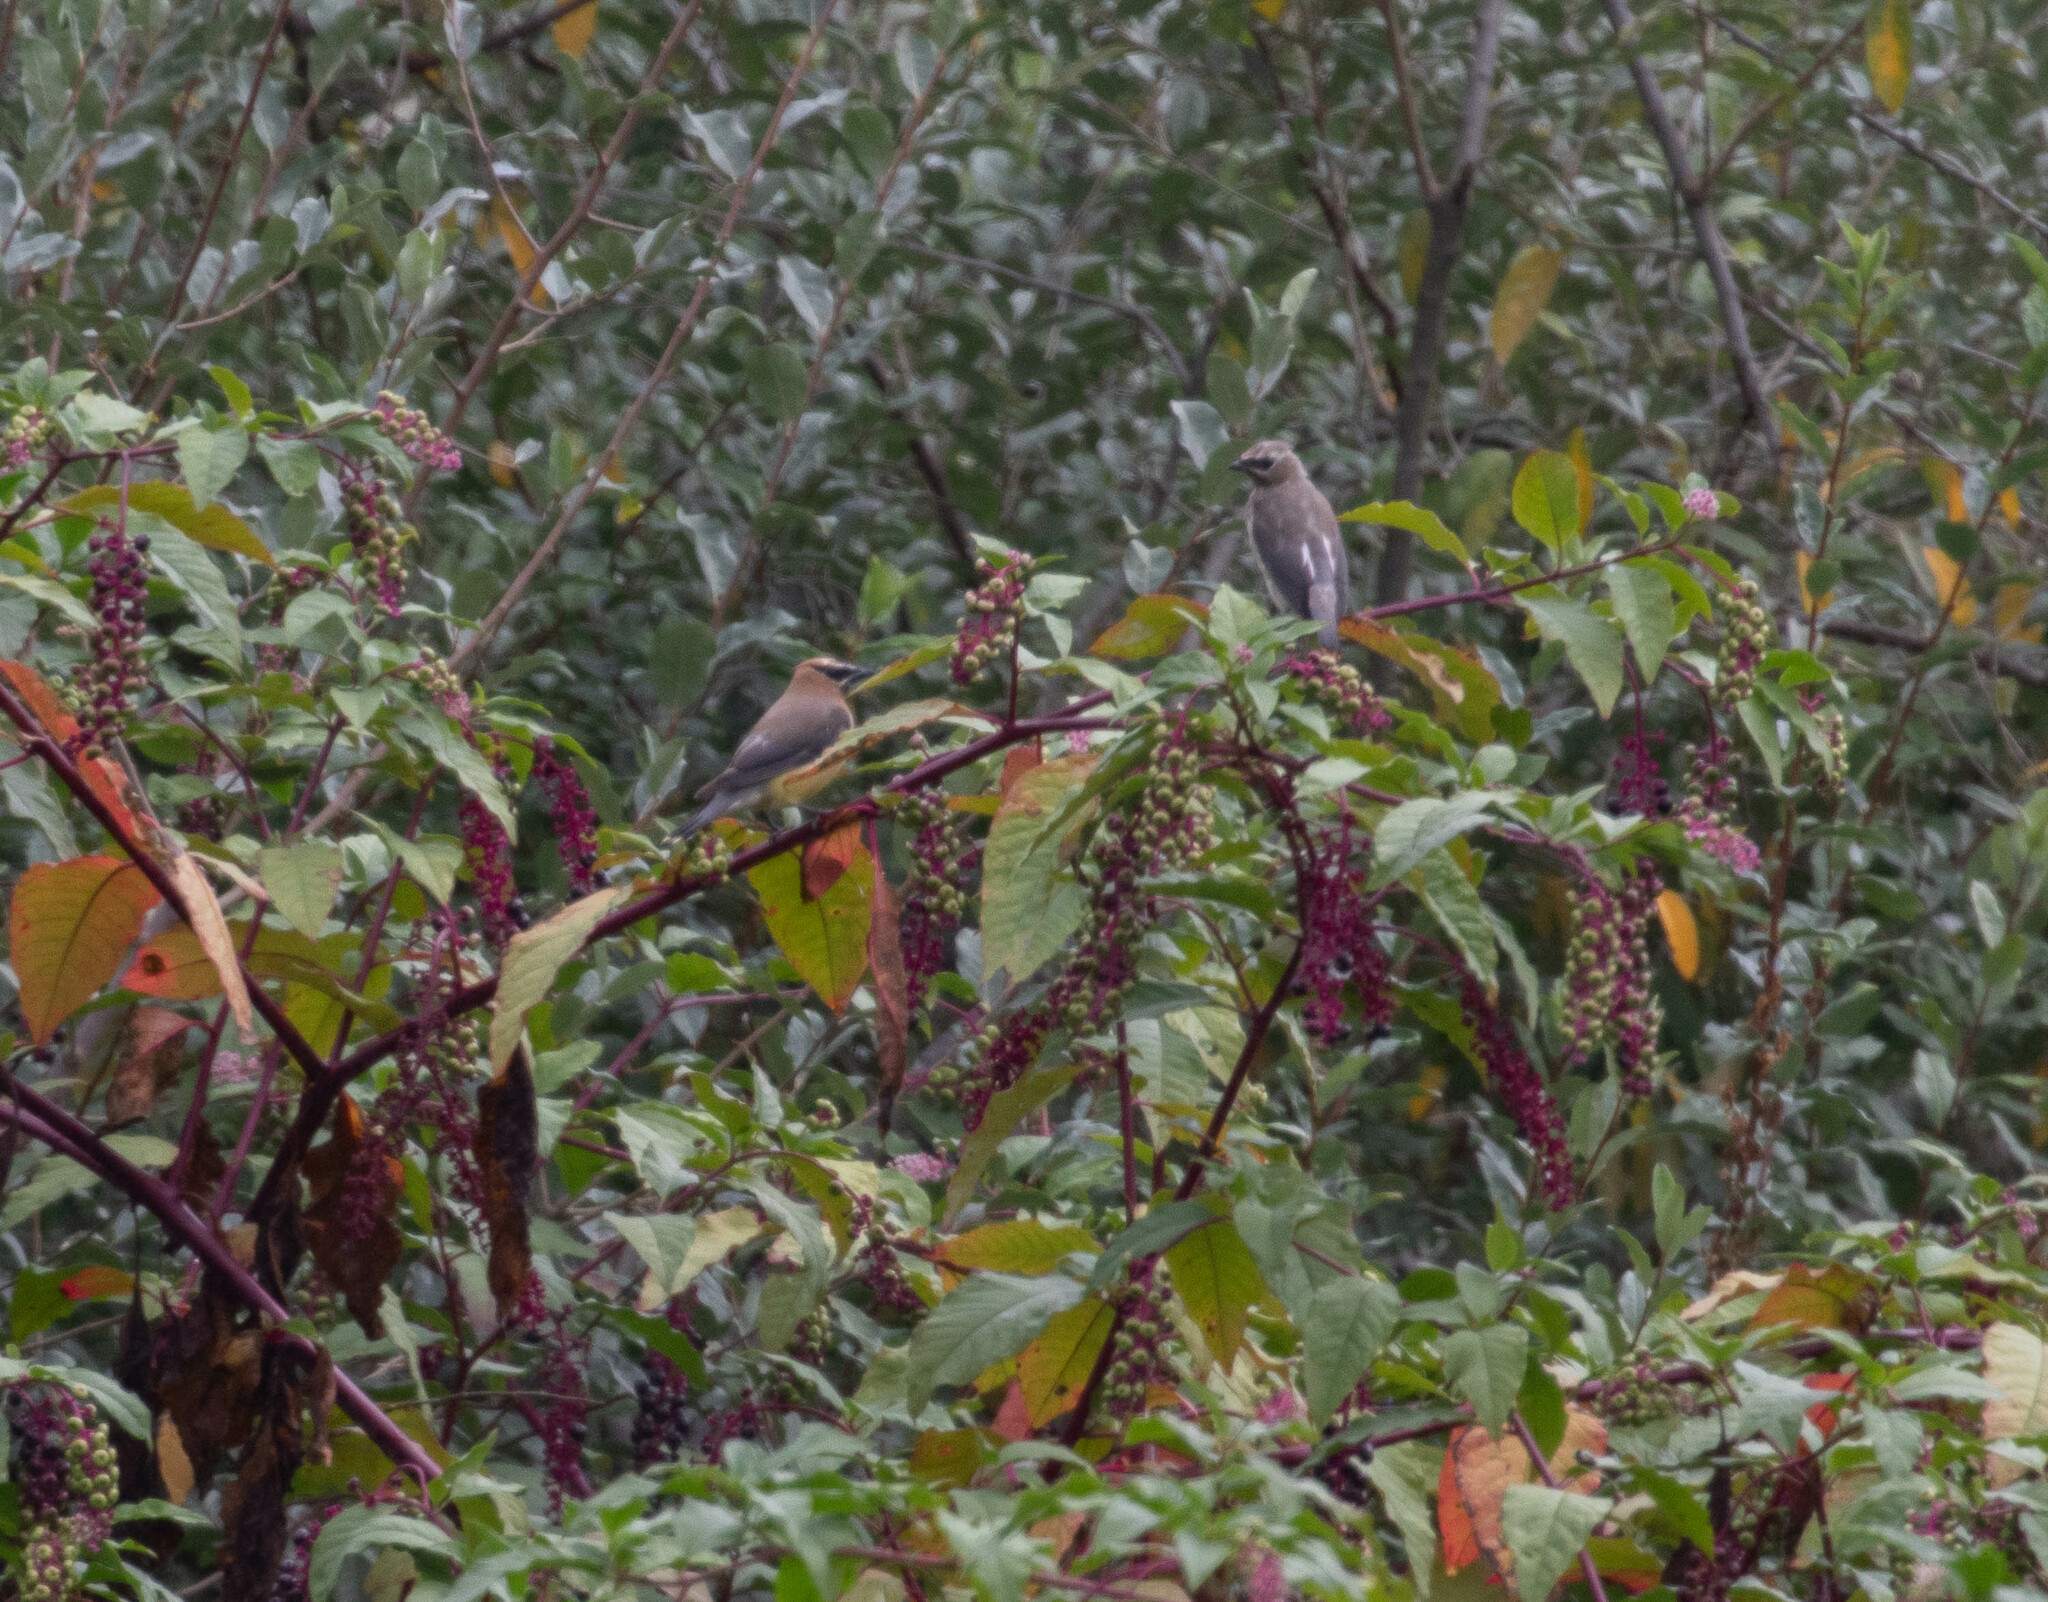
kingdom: Animalia
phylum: Chordata
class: Aves
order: Passeriformes
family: Bombycillidae
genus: Bombycilla
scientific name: Bombycilla cedrorum
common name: Cedar waxwing
